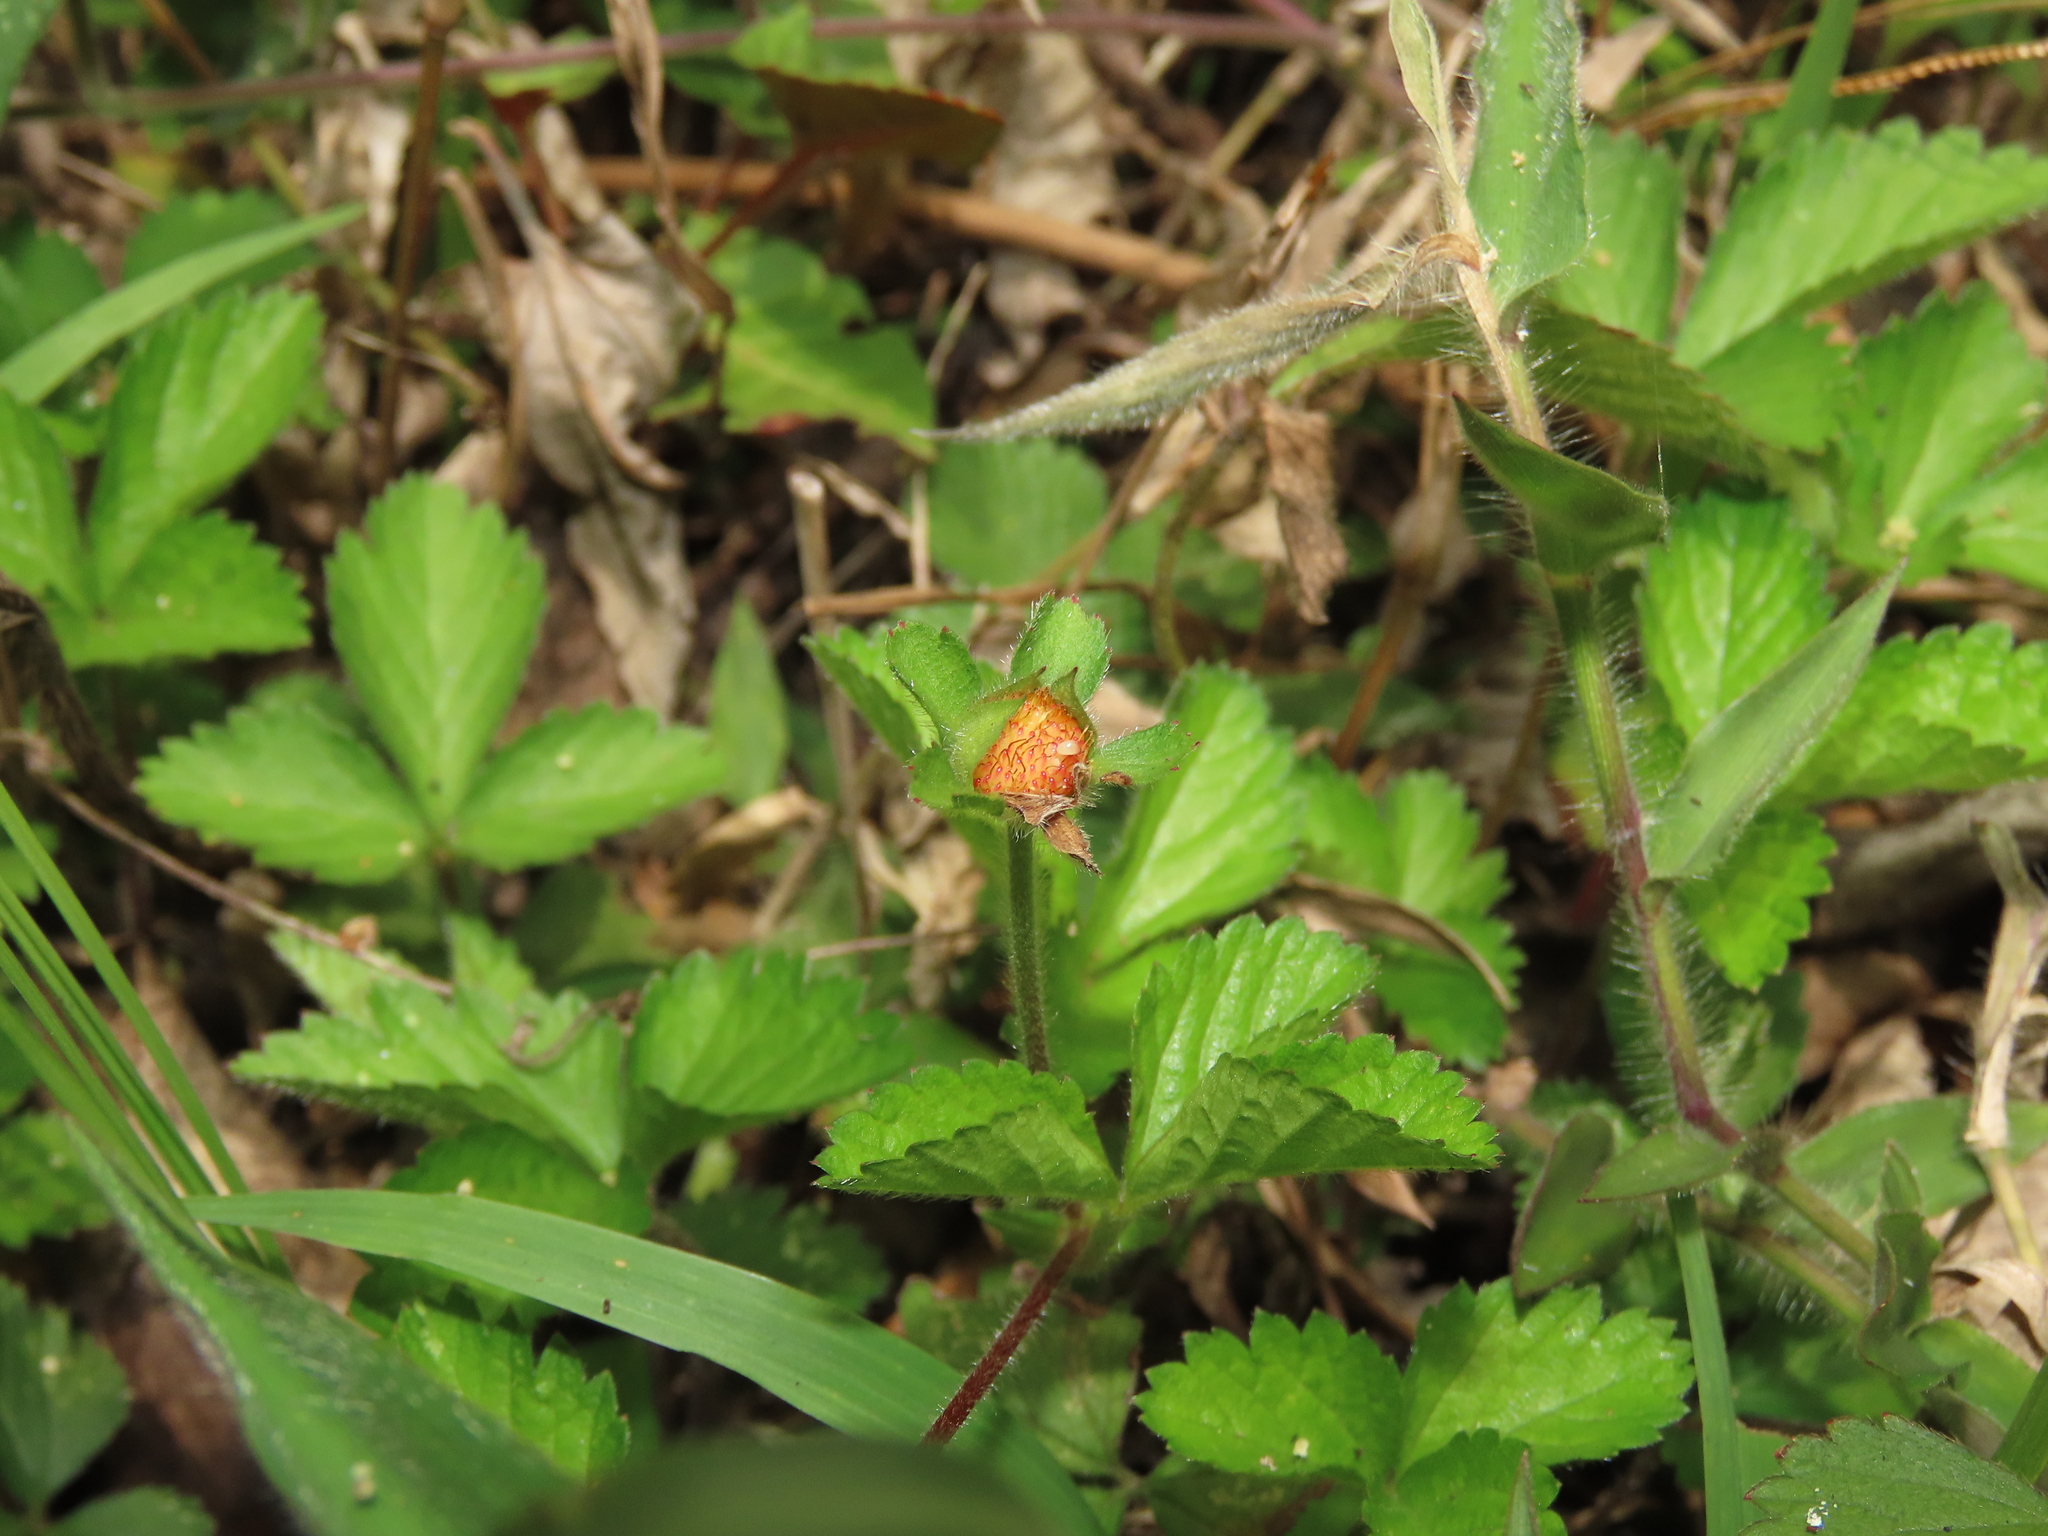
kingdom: Plantae
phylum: Tracheophyta
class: Magnoliopsida
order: Rosales
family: Rosaceae
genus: Potentilla
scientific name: Potentilla wallichiana
